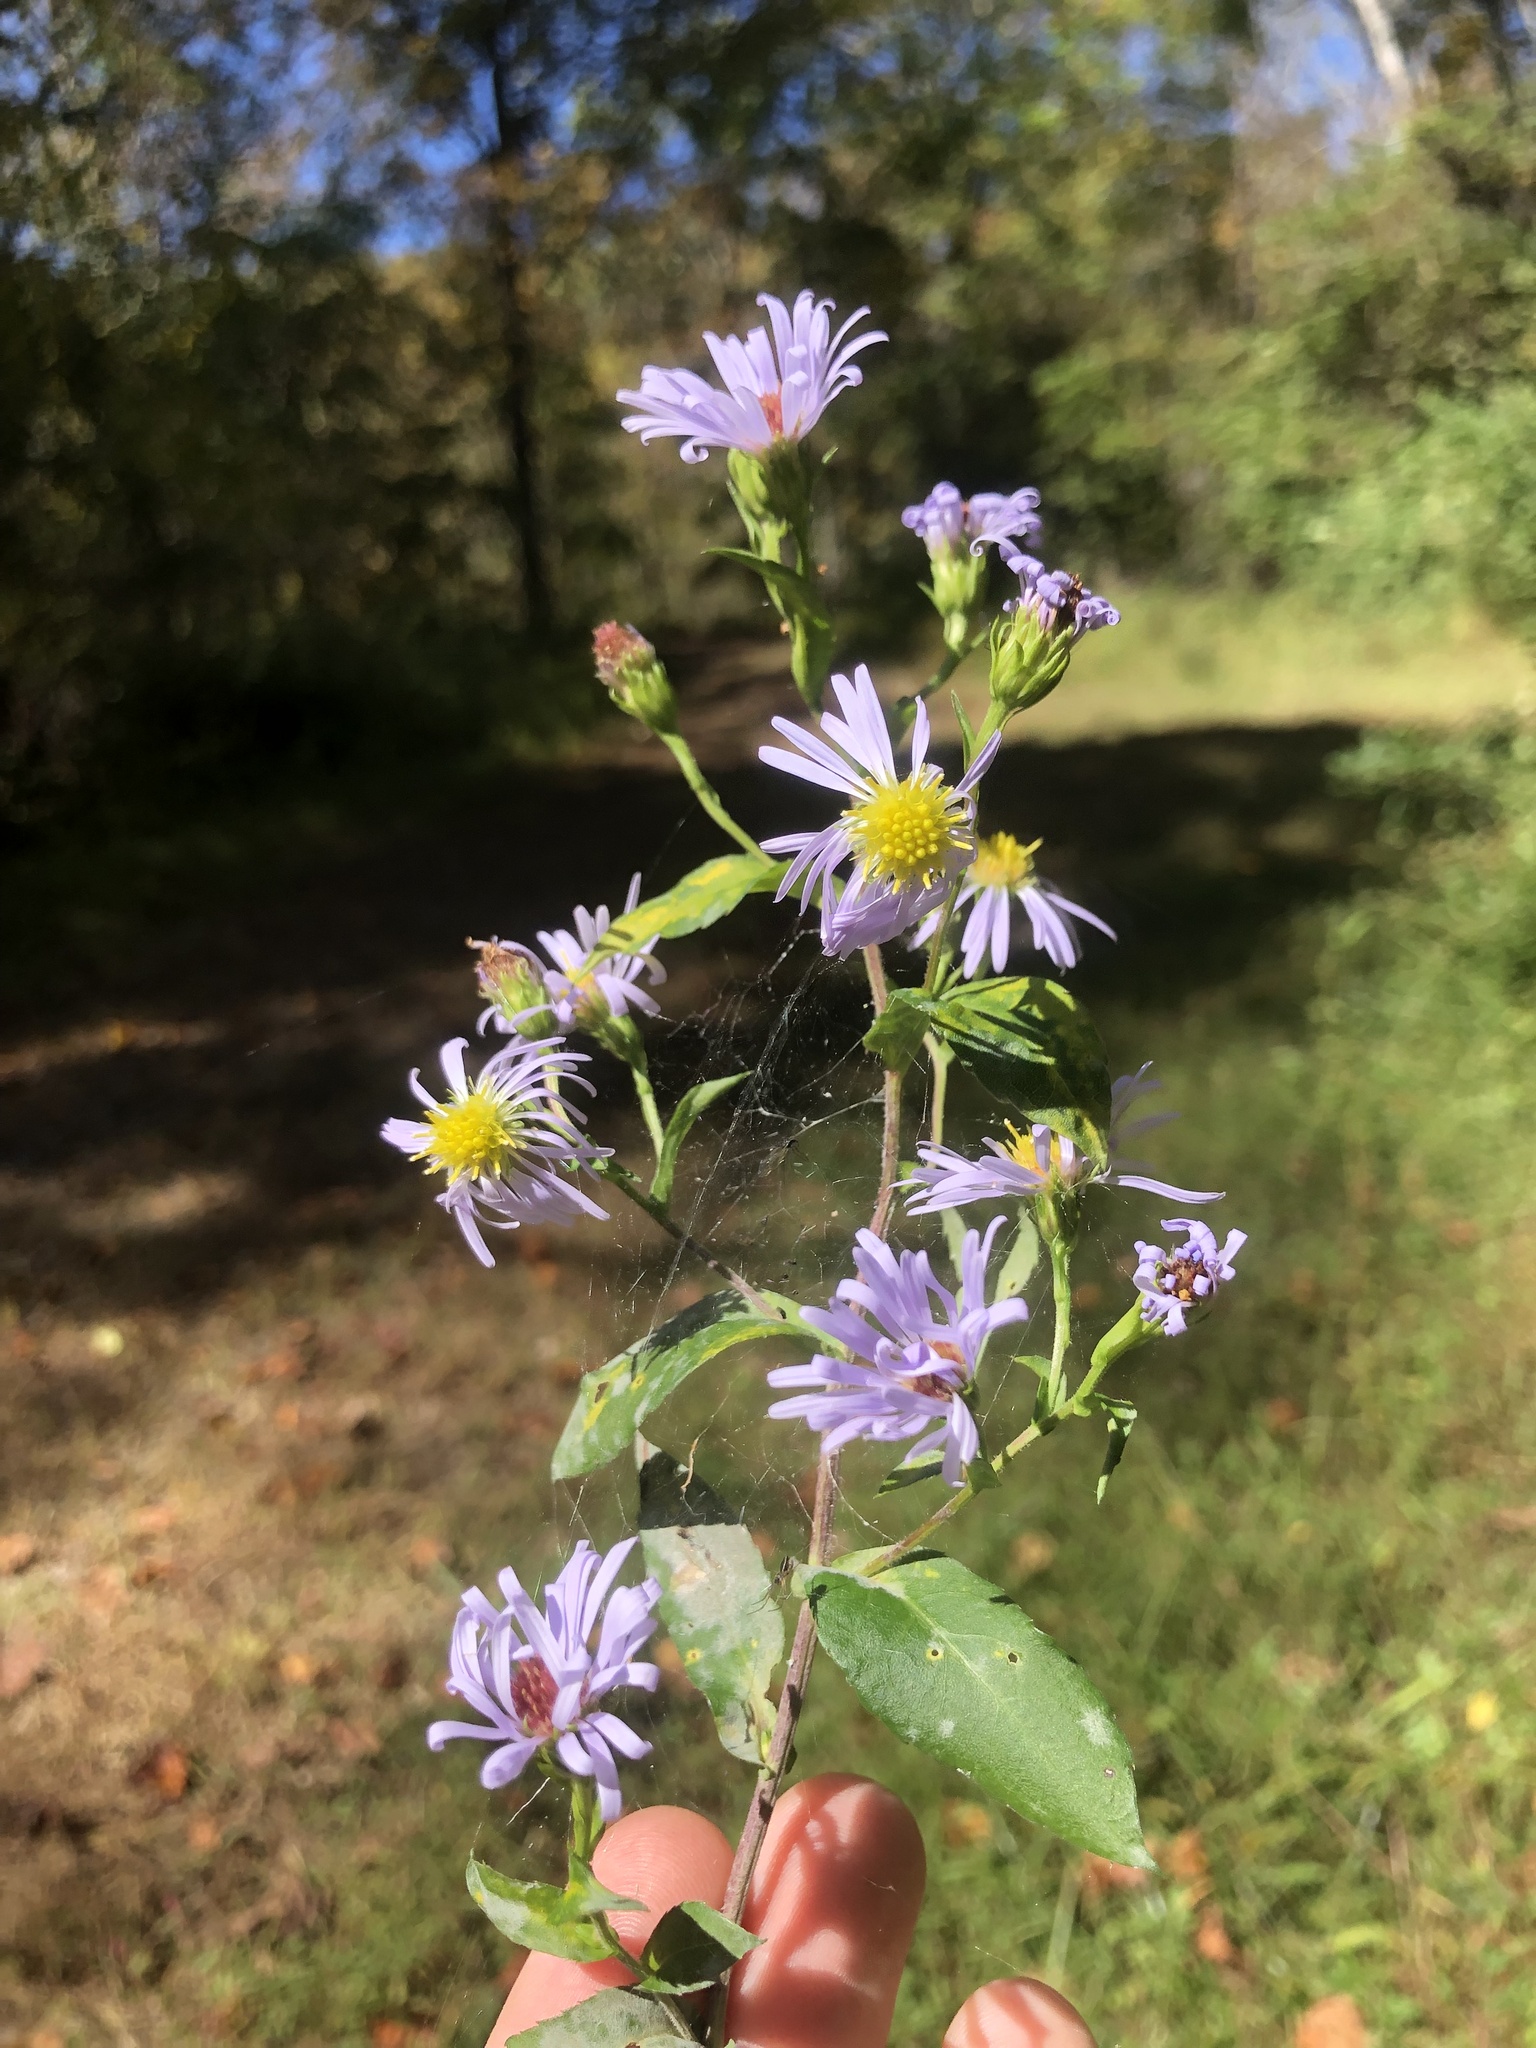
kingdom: Plantae
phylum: Tracheophyta
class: Magnoliopsida
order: Asterales
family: Asteraceae
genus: Symphyotrichum
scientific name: Symphyotrichum puniceum
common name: Bog aster
